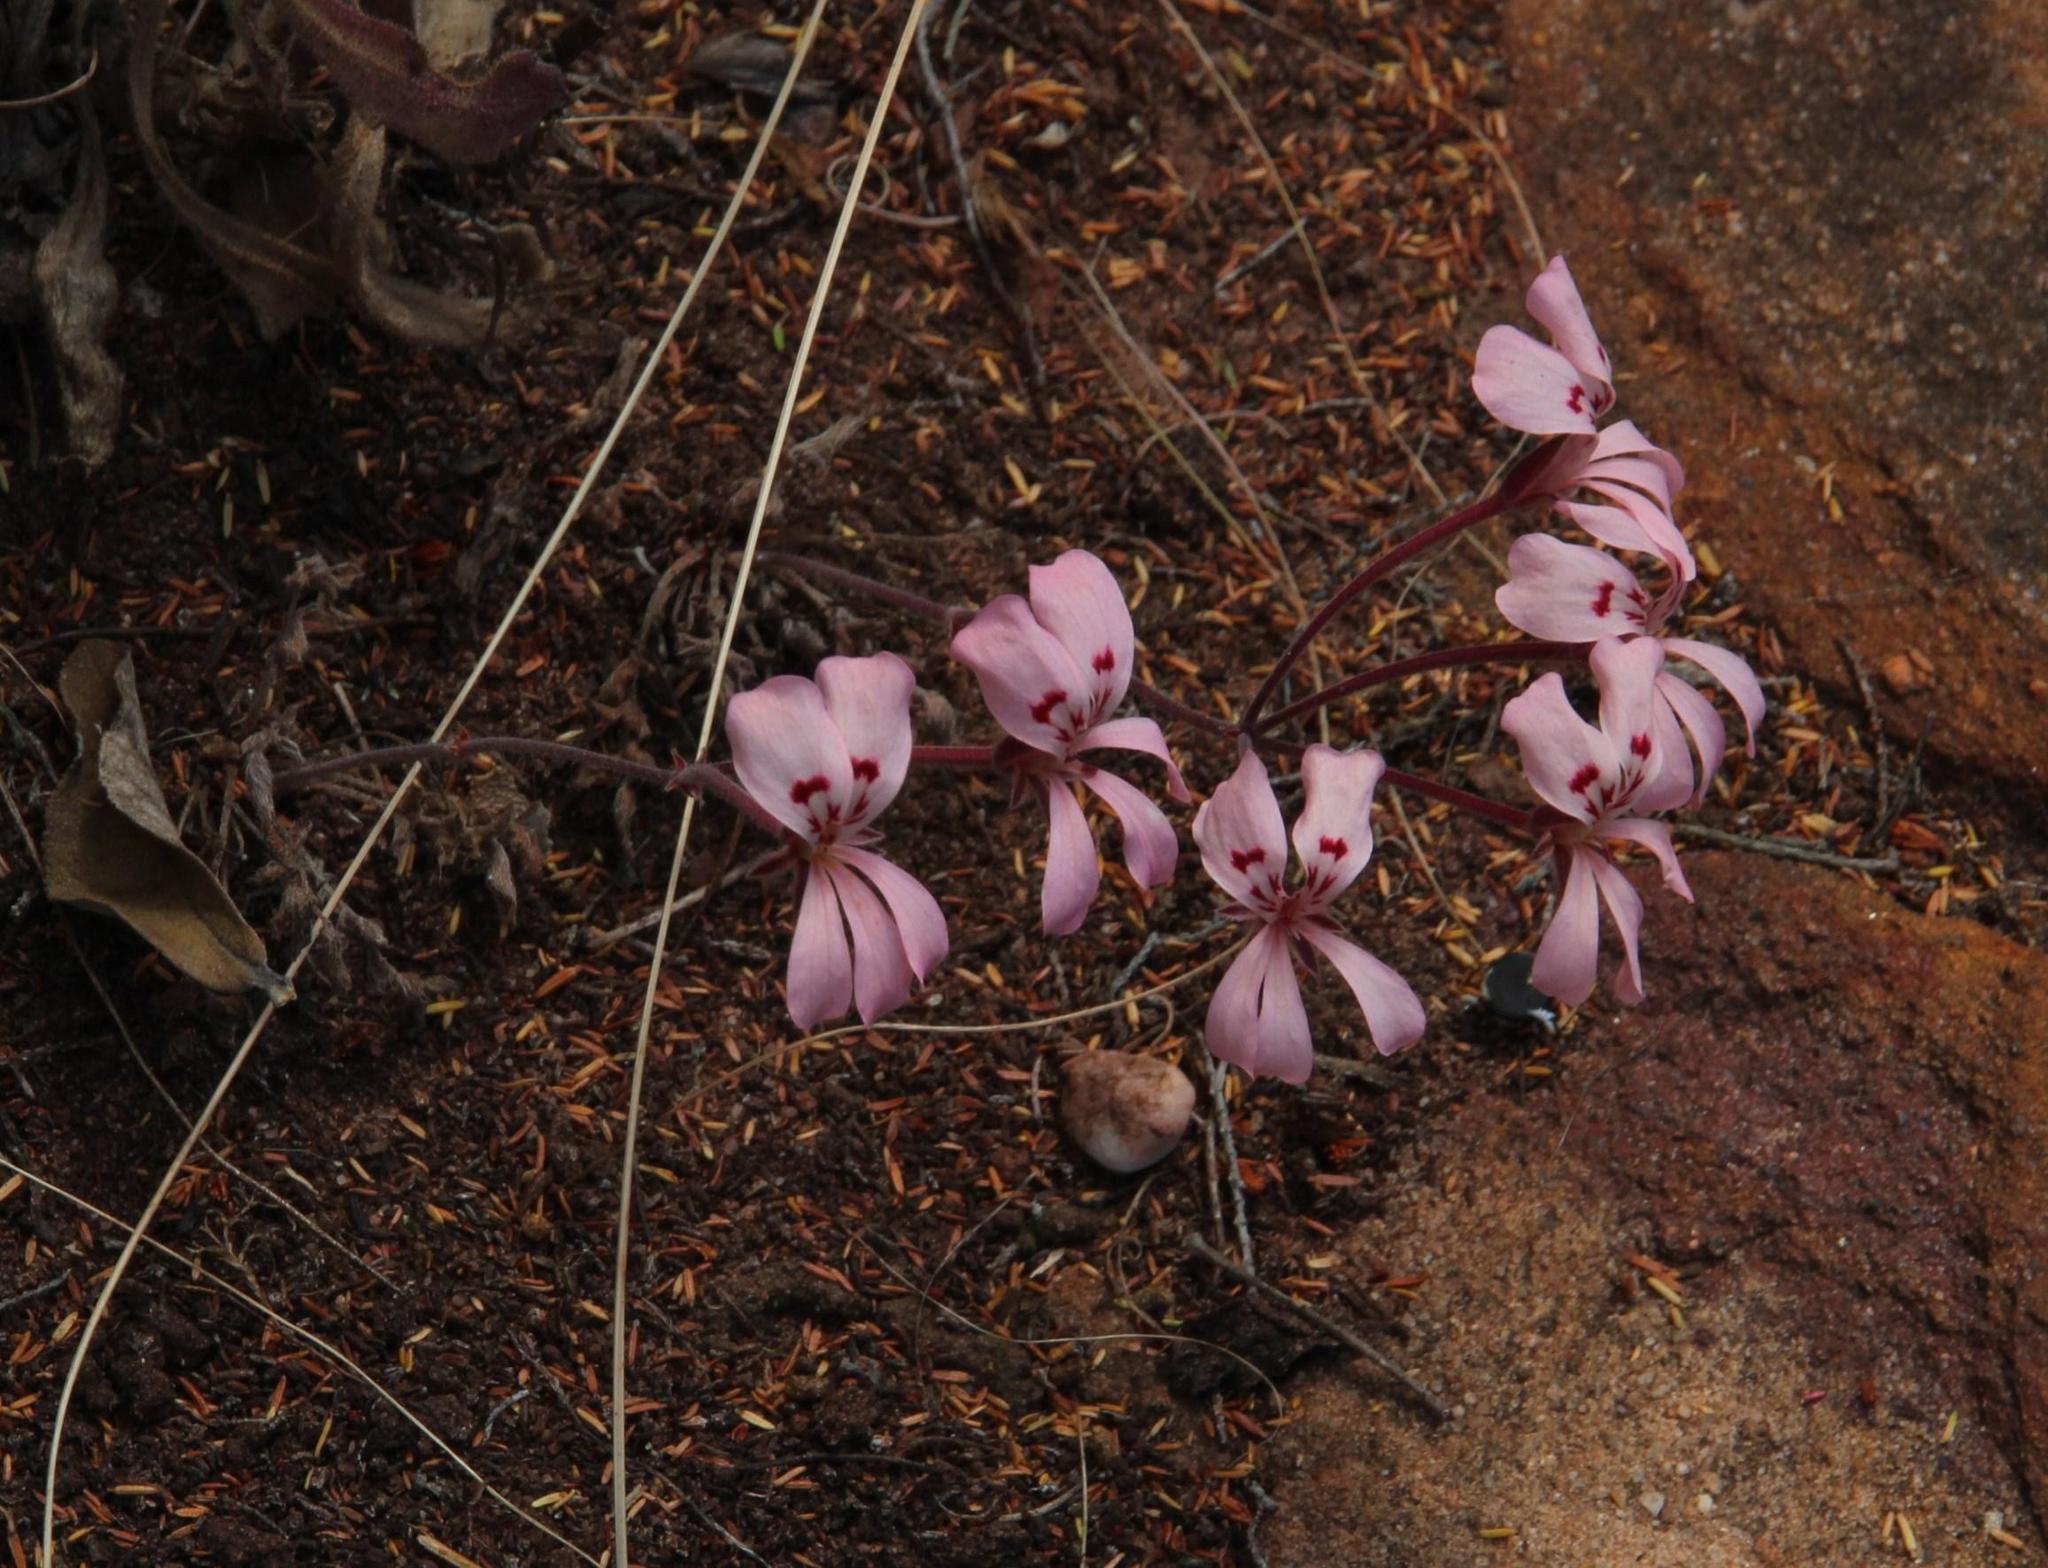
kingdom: Plantae
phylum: Tracheophyta
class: Magnoliopsida
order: Geraniales
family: Geraniaceae
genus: Pelargonium
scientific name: Pelargonium pinnatum
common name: Pinnated pelargonium
